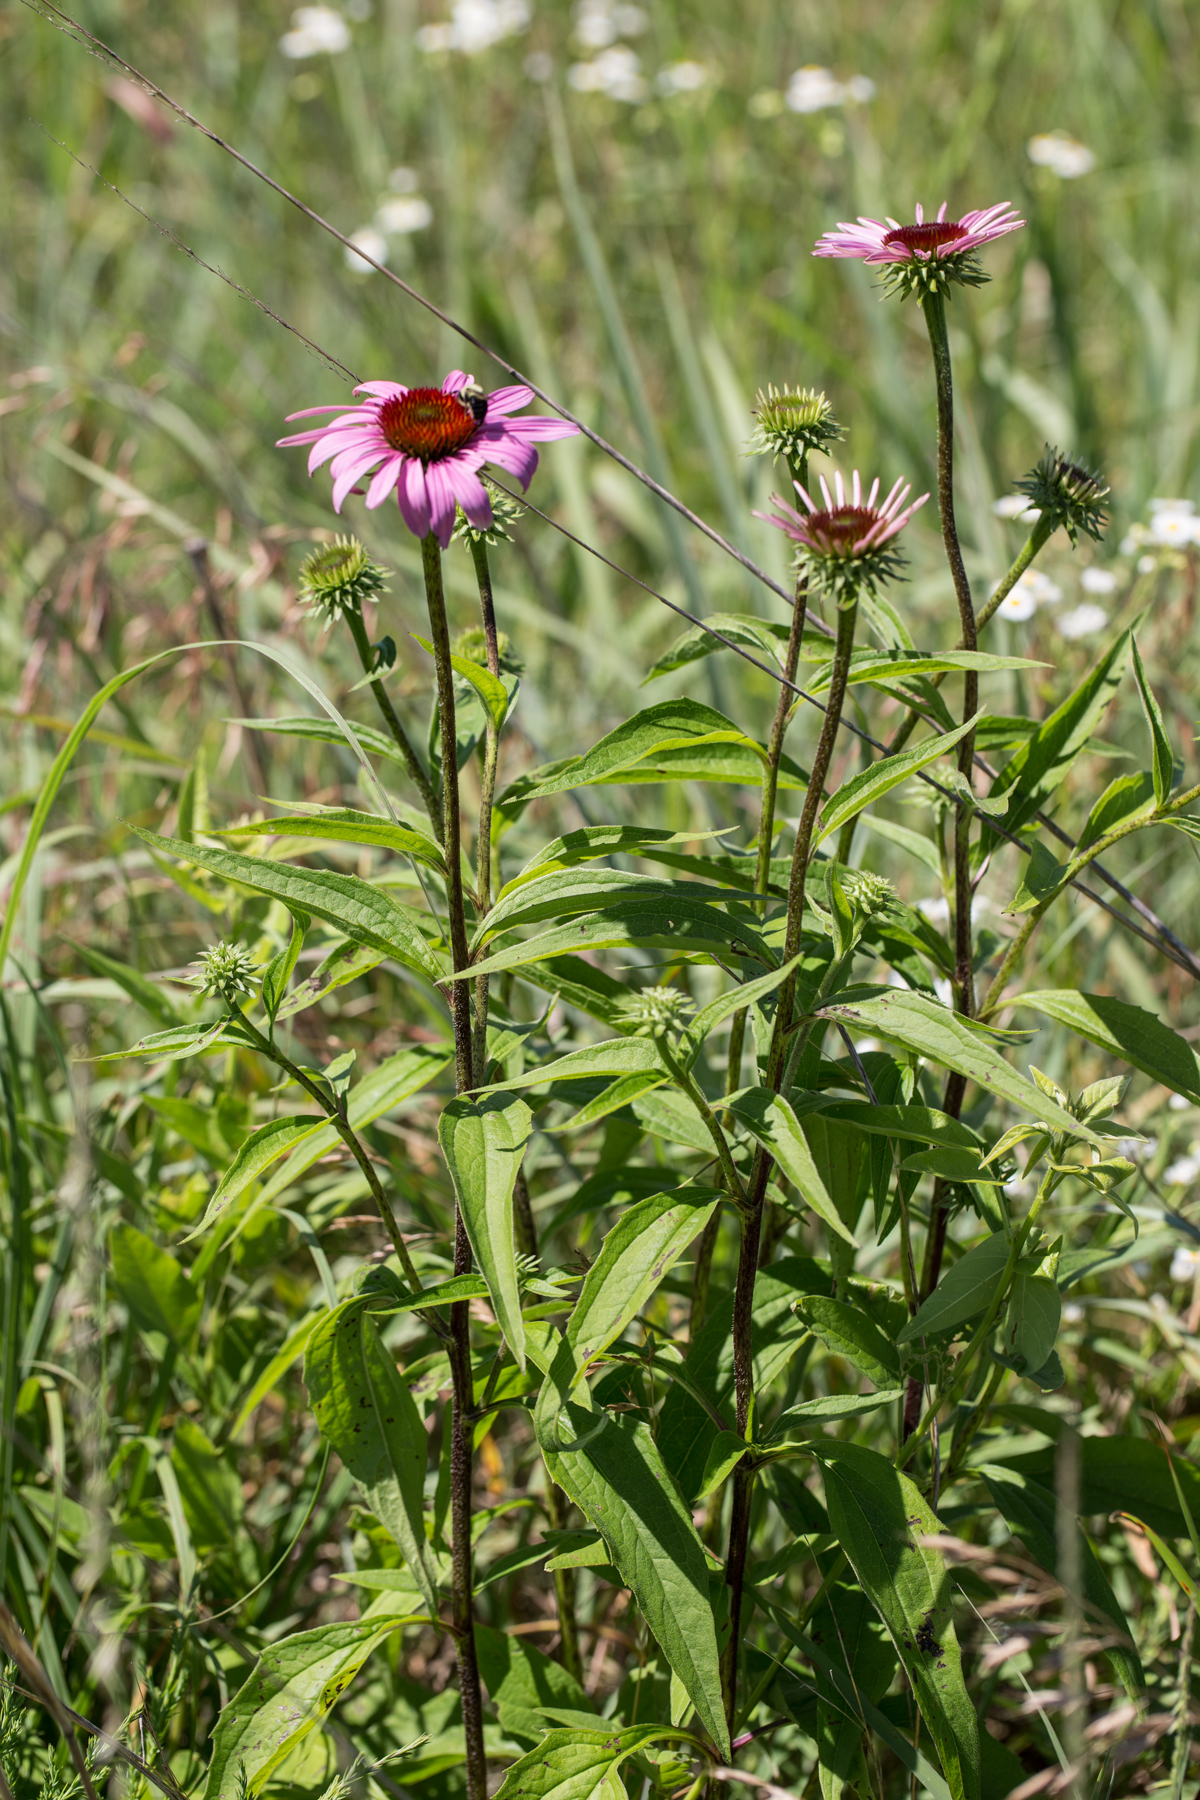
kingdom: Plantae
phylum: Tracheophyta
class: Magnoliopsida
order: Asterales
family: Asteraceae
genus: Echinacea
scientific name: Echinacea purpurea
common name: Broad-leaved purple coneflower
